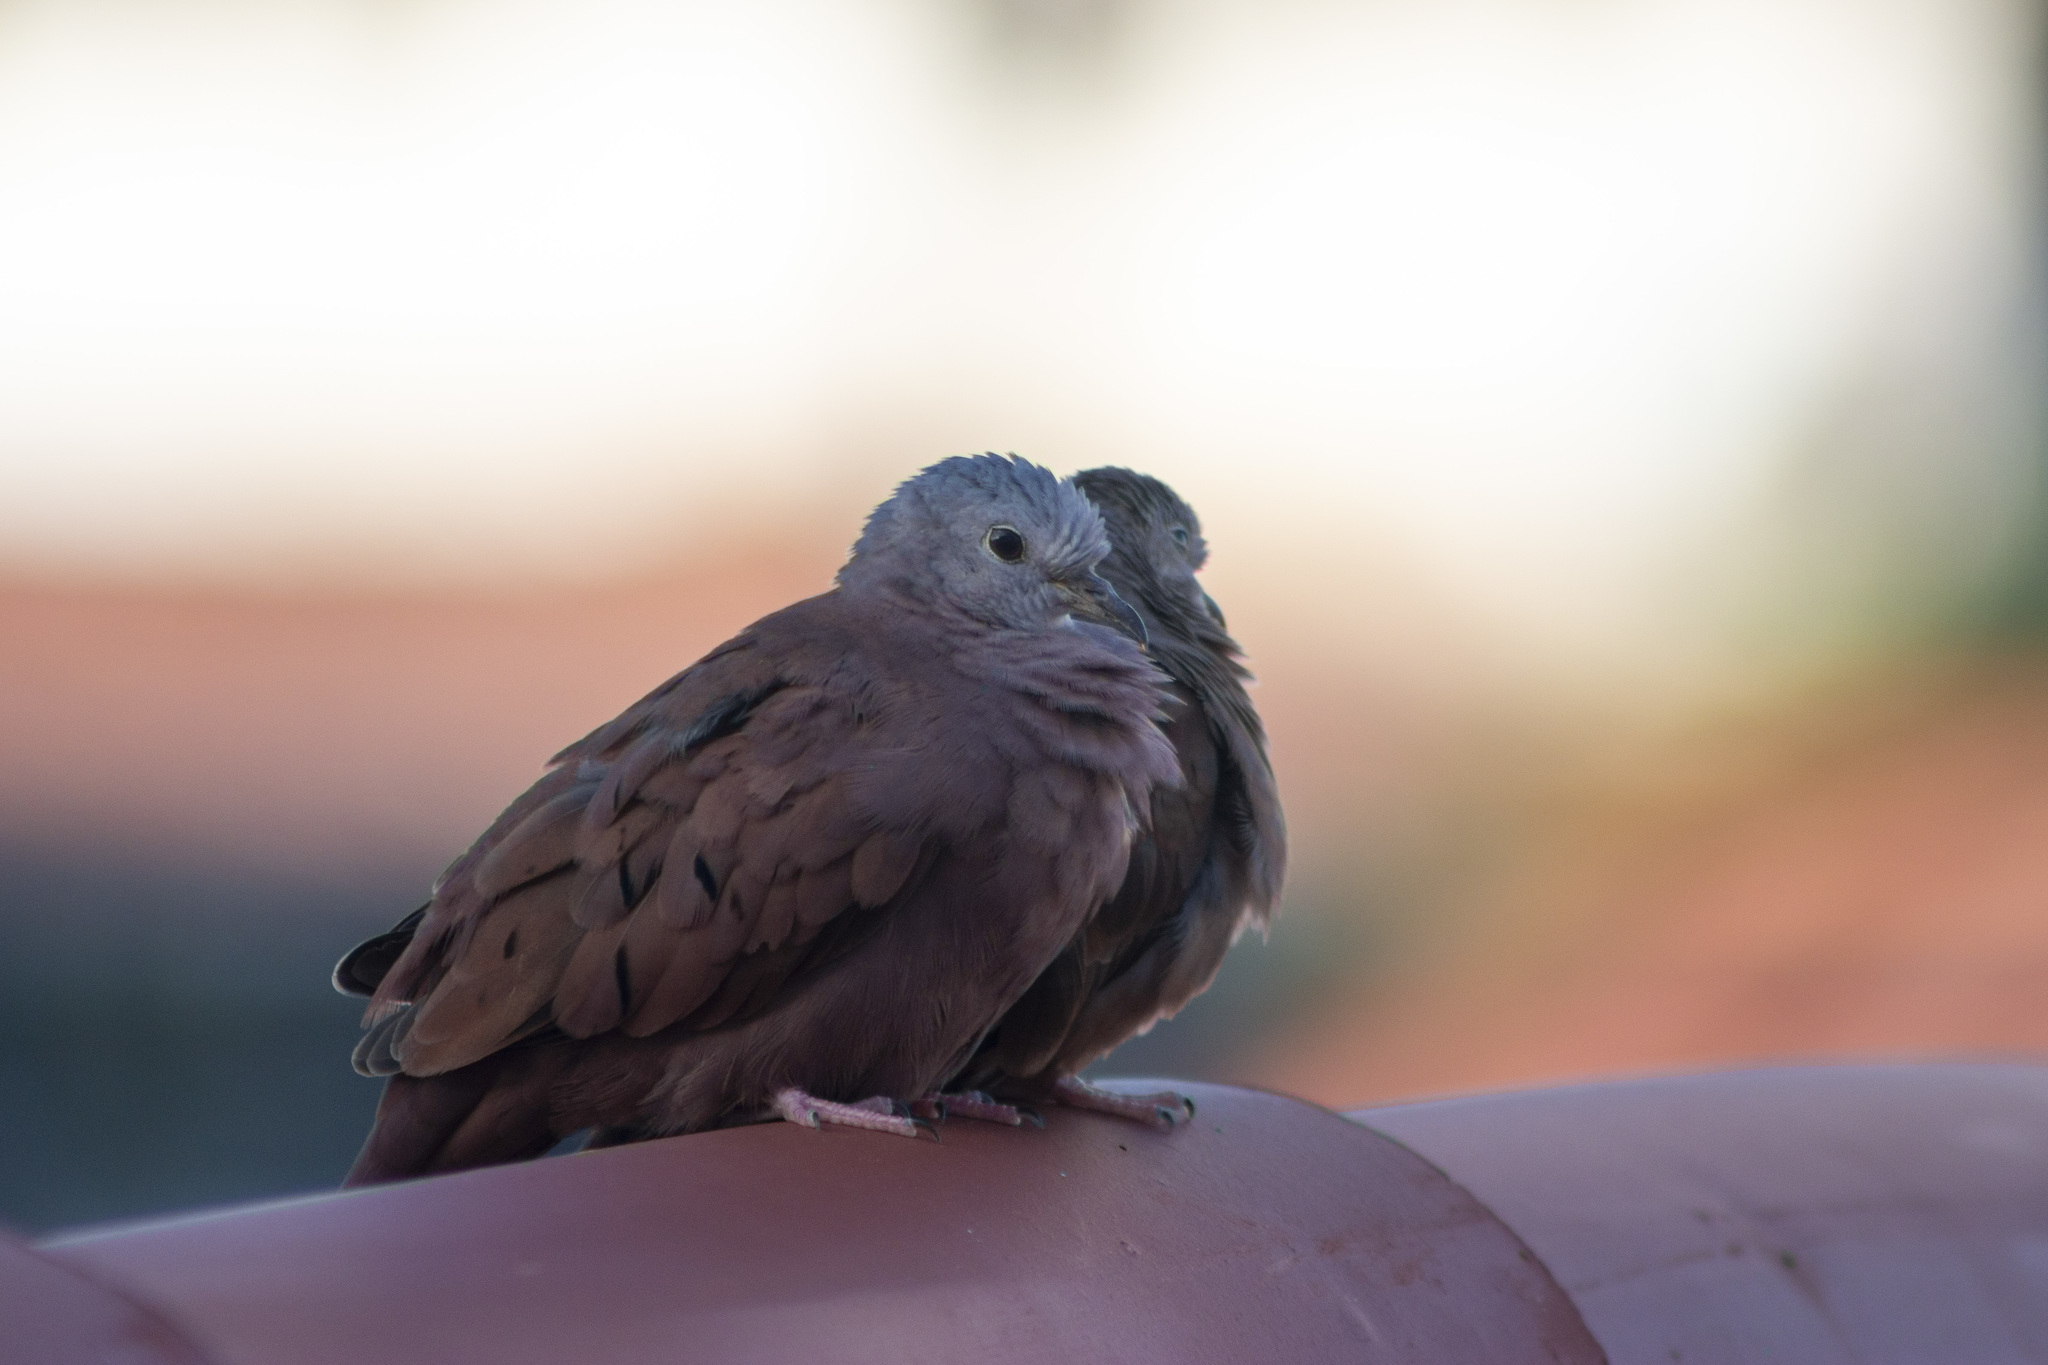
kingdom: Animalia
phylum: Chordata
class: Aves
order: Columbiformes
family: Columbidae
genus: Columbina
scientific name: Columbina talpacoti
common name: Ruddy ground dove
